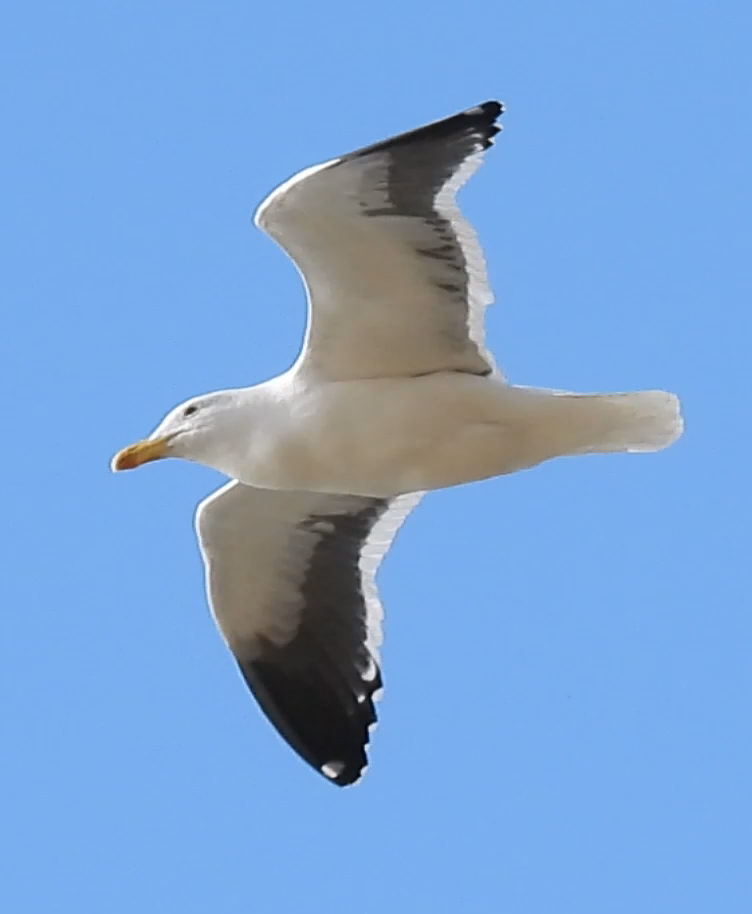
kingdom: Animalia
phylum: Chordata
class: Aves
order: Charadriiformes
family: Laridae
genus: Larus
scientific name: Larus dominicanus
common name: Kelp gull
